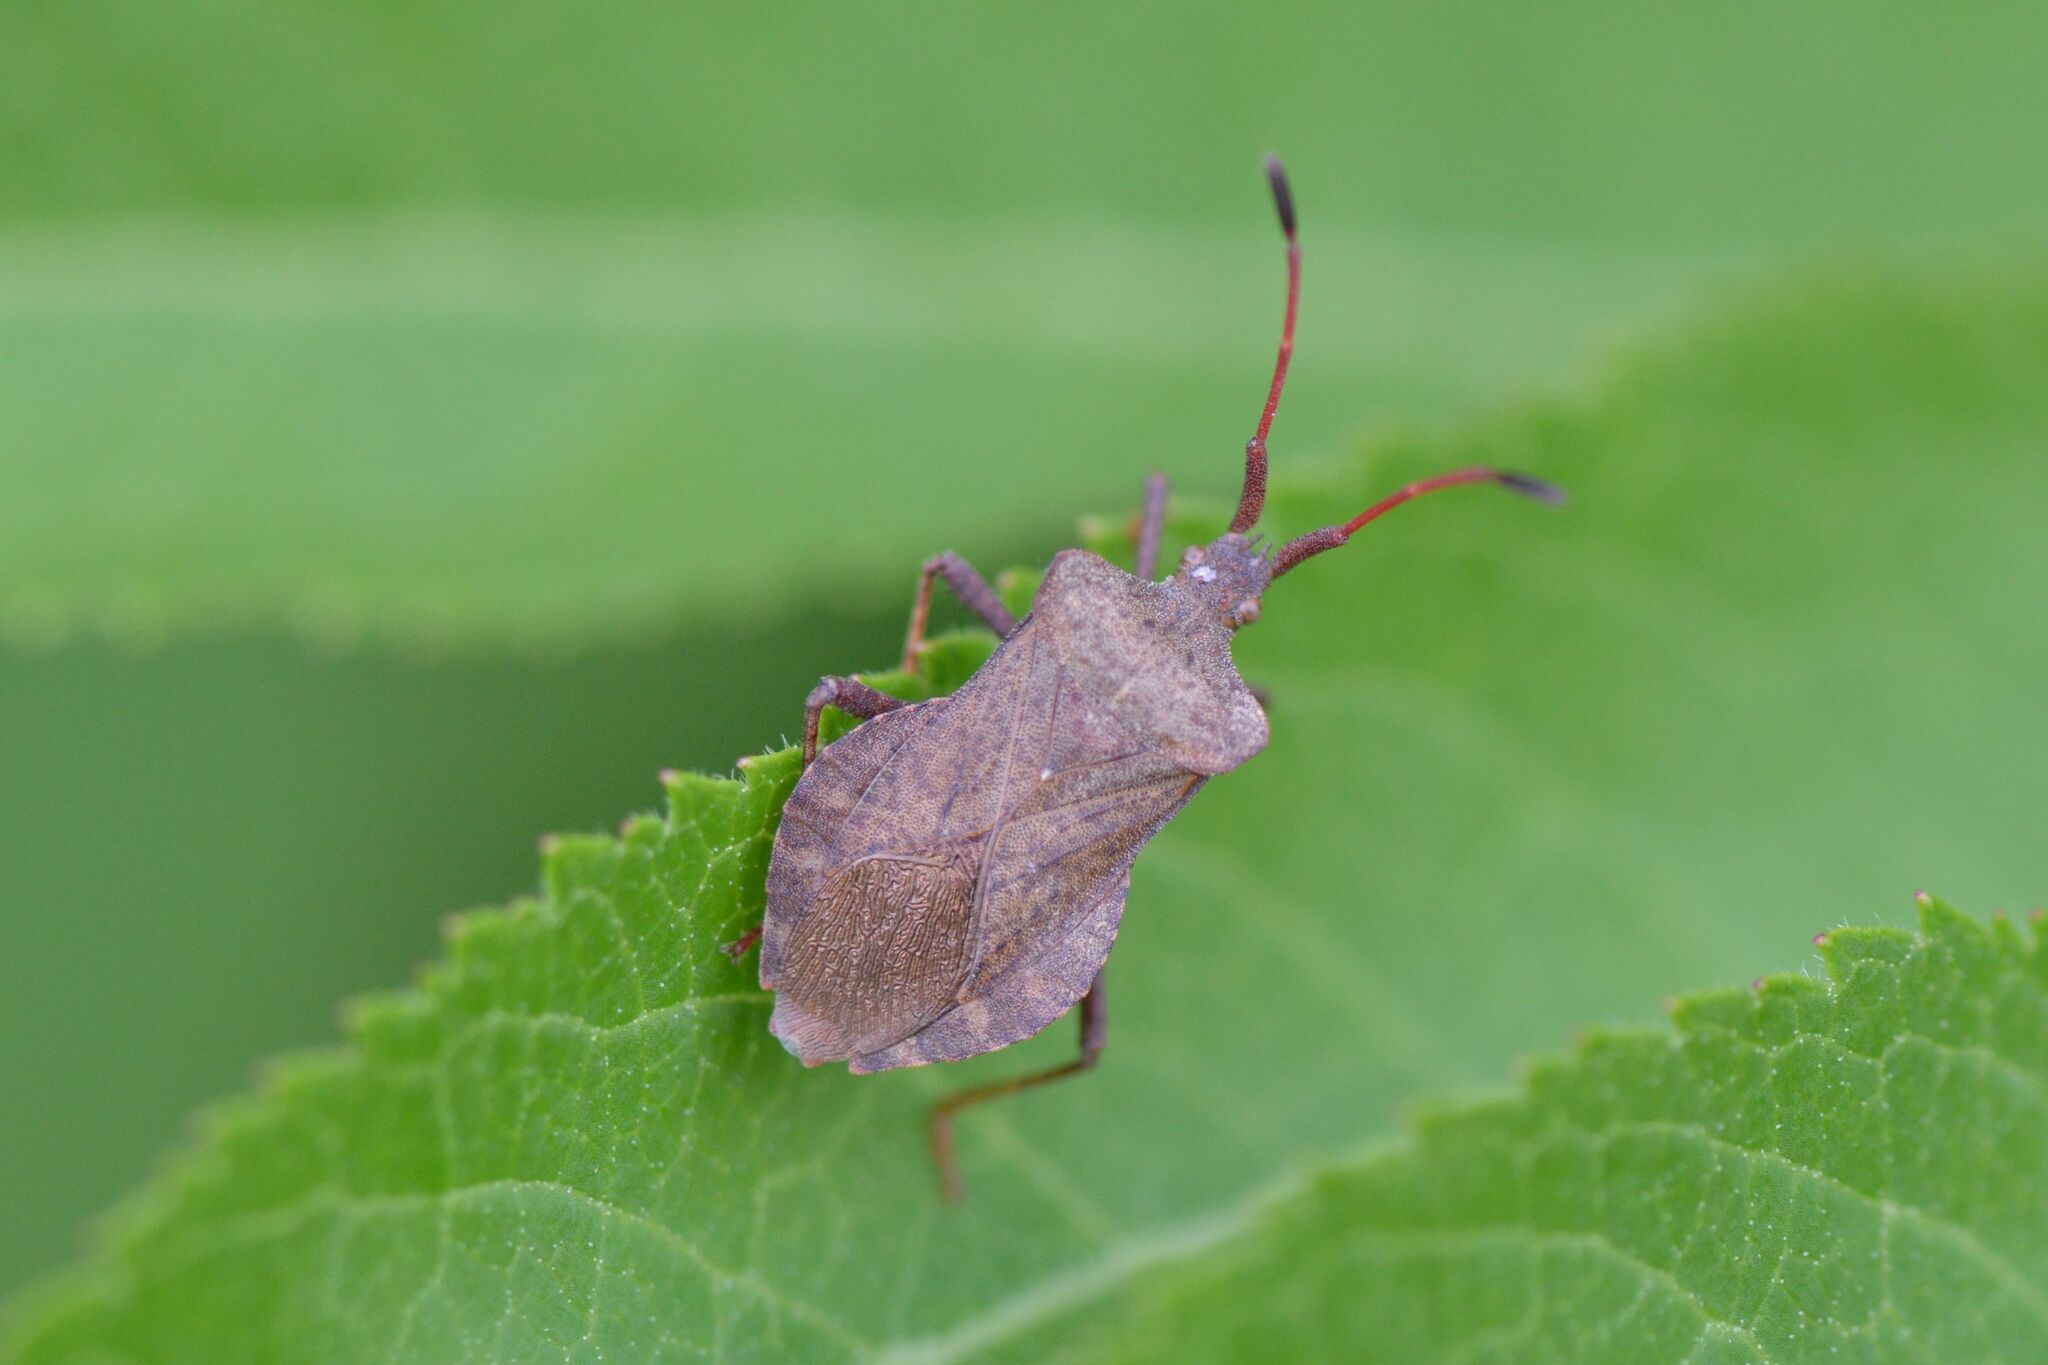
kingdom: Animalia
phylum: Arthropoda
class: Insecta
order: Hemiptera
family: Coreidae
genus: Coreus
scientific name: Coreus marginatus
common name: Dock bug
